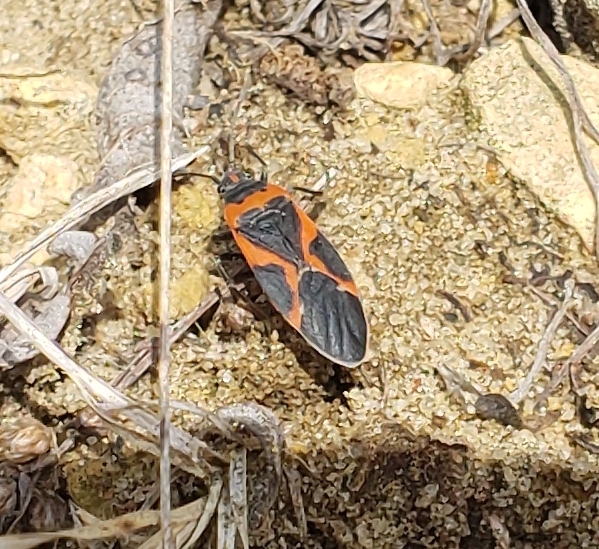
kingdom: Animalia
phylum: Arthropoda
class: Insecta
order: Hemiptera
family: Lygaeidae
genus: Lygaeus
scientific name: Lygaeus kalmii
